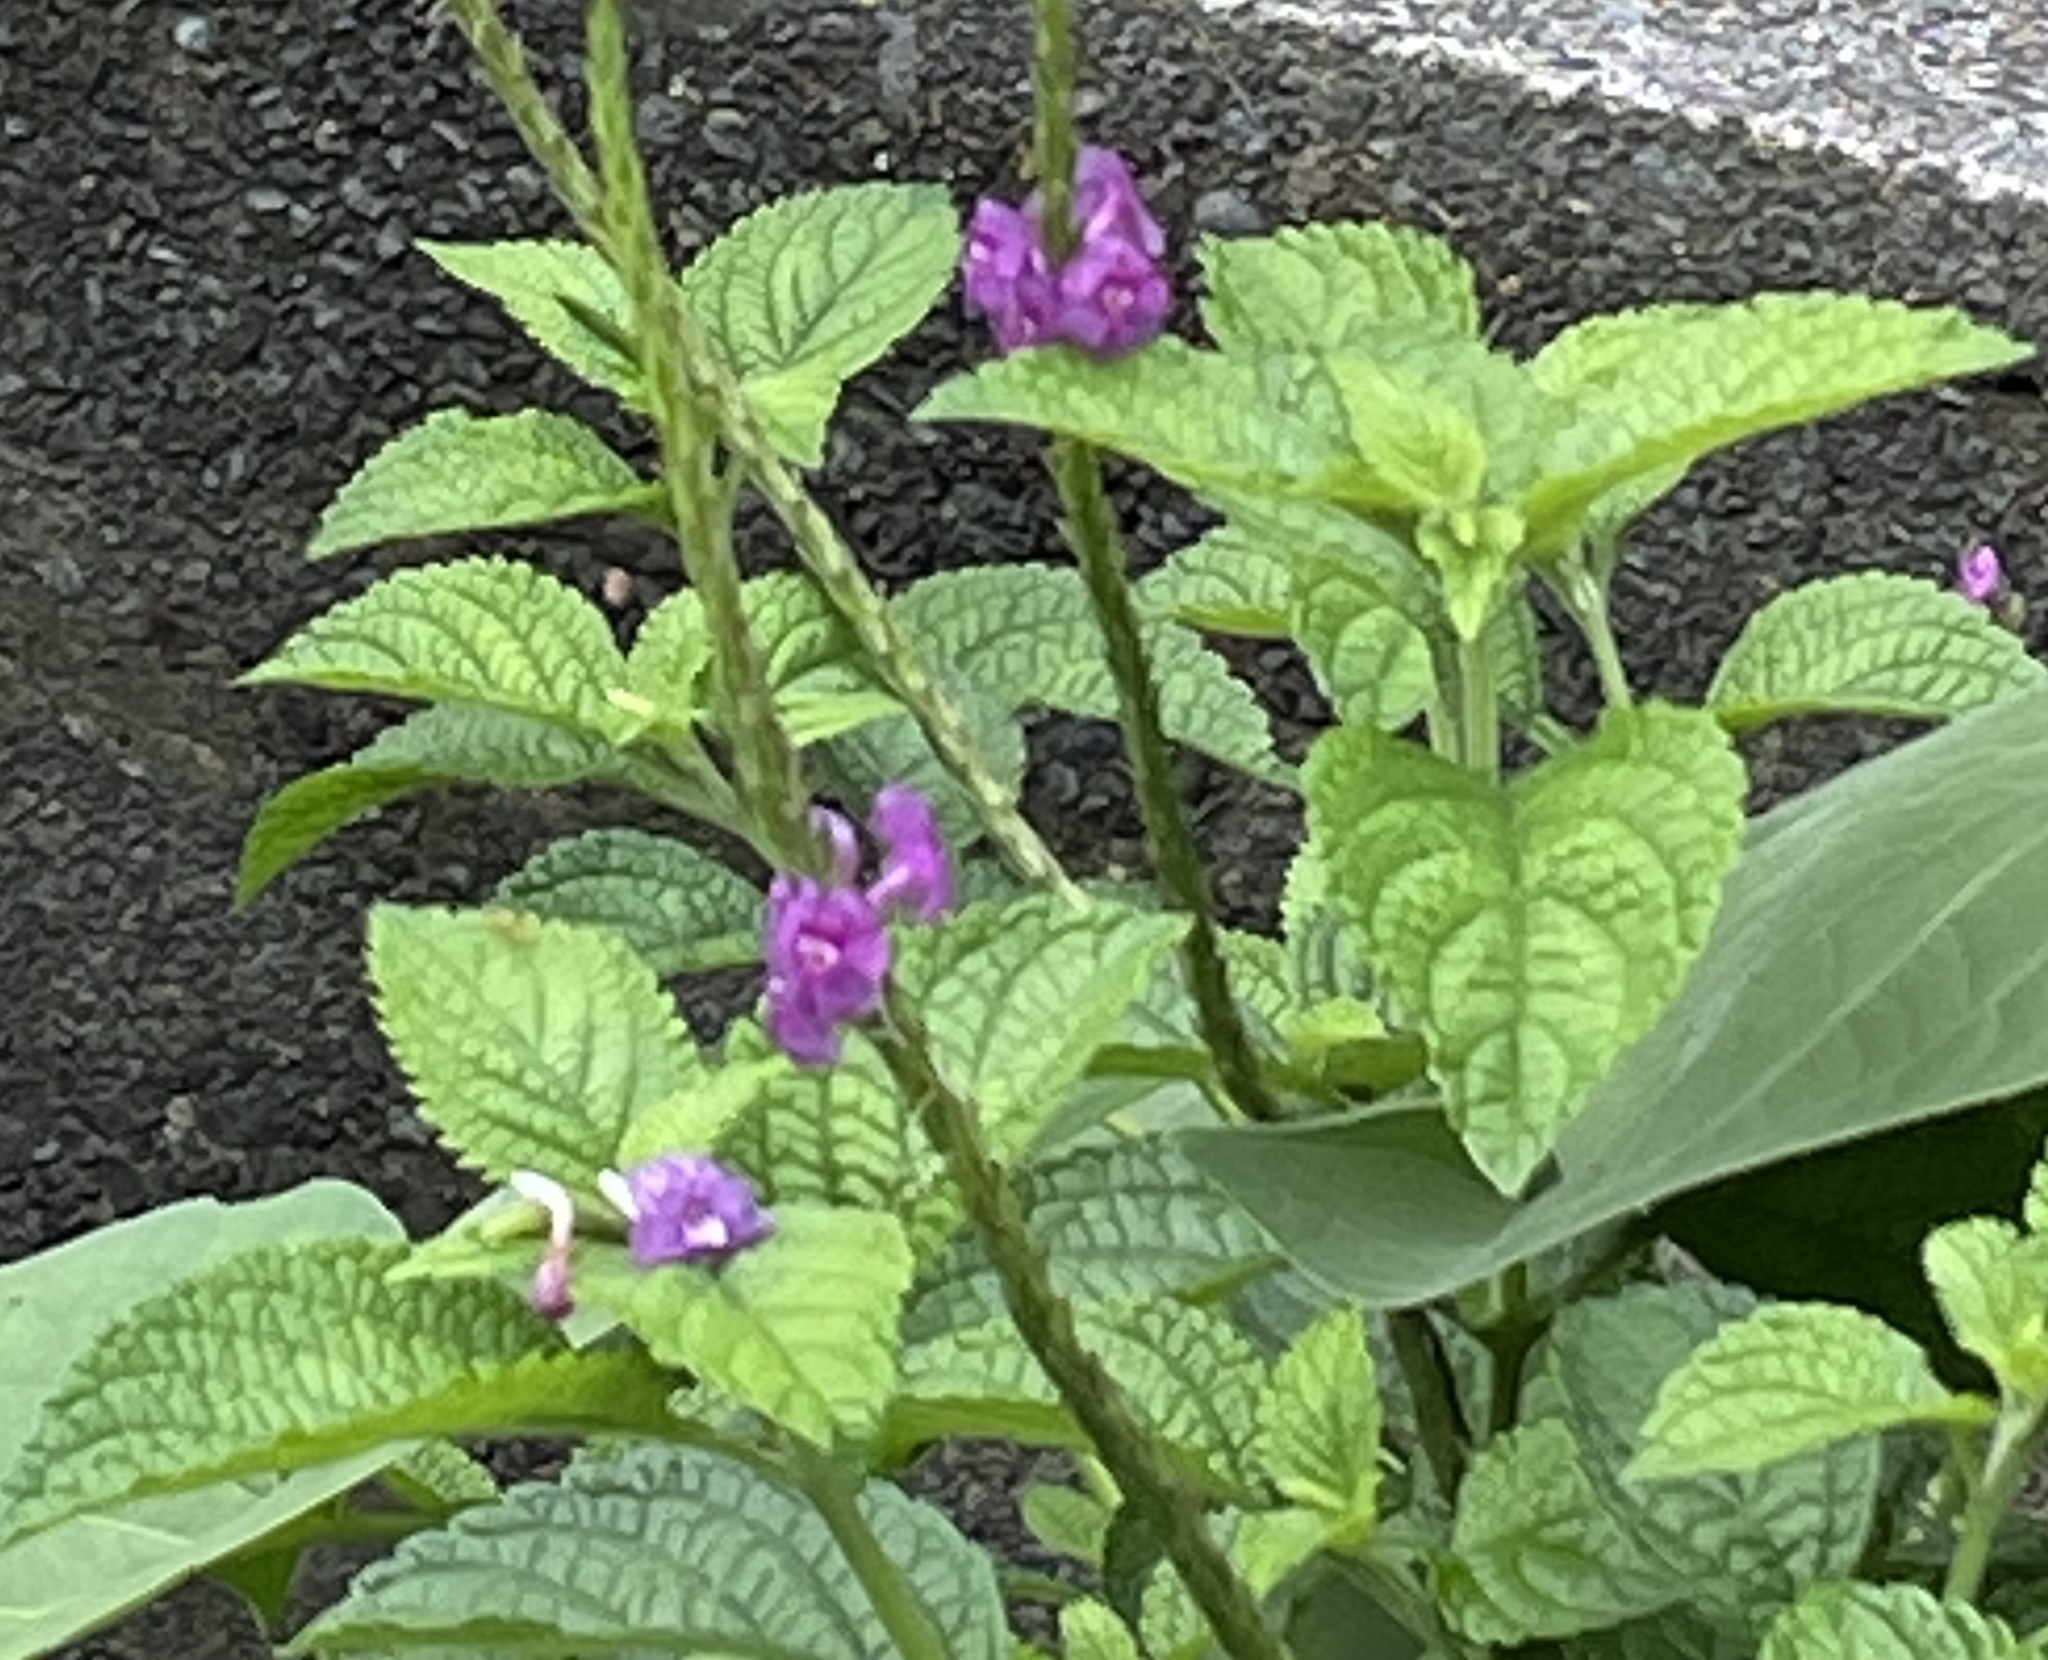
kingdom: Plantae
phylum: Tracheophyta
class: Magnoliopsida
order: Lamiales
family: Verbenaceae
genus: Stachytarpheta
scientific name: Stachytarpheta frantzii
